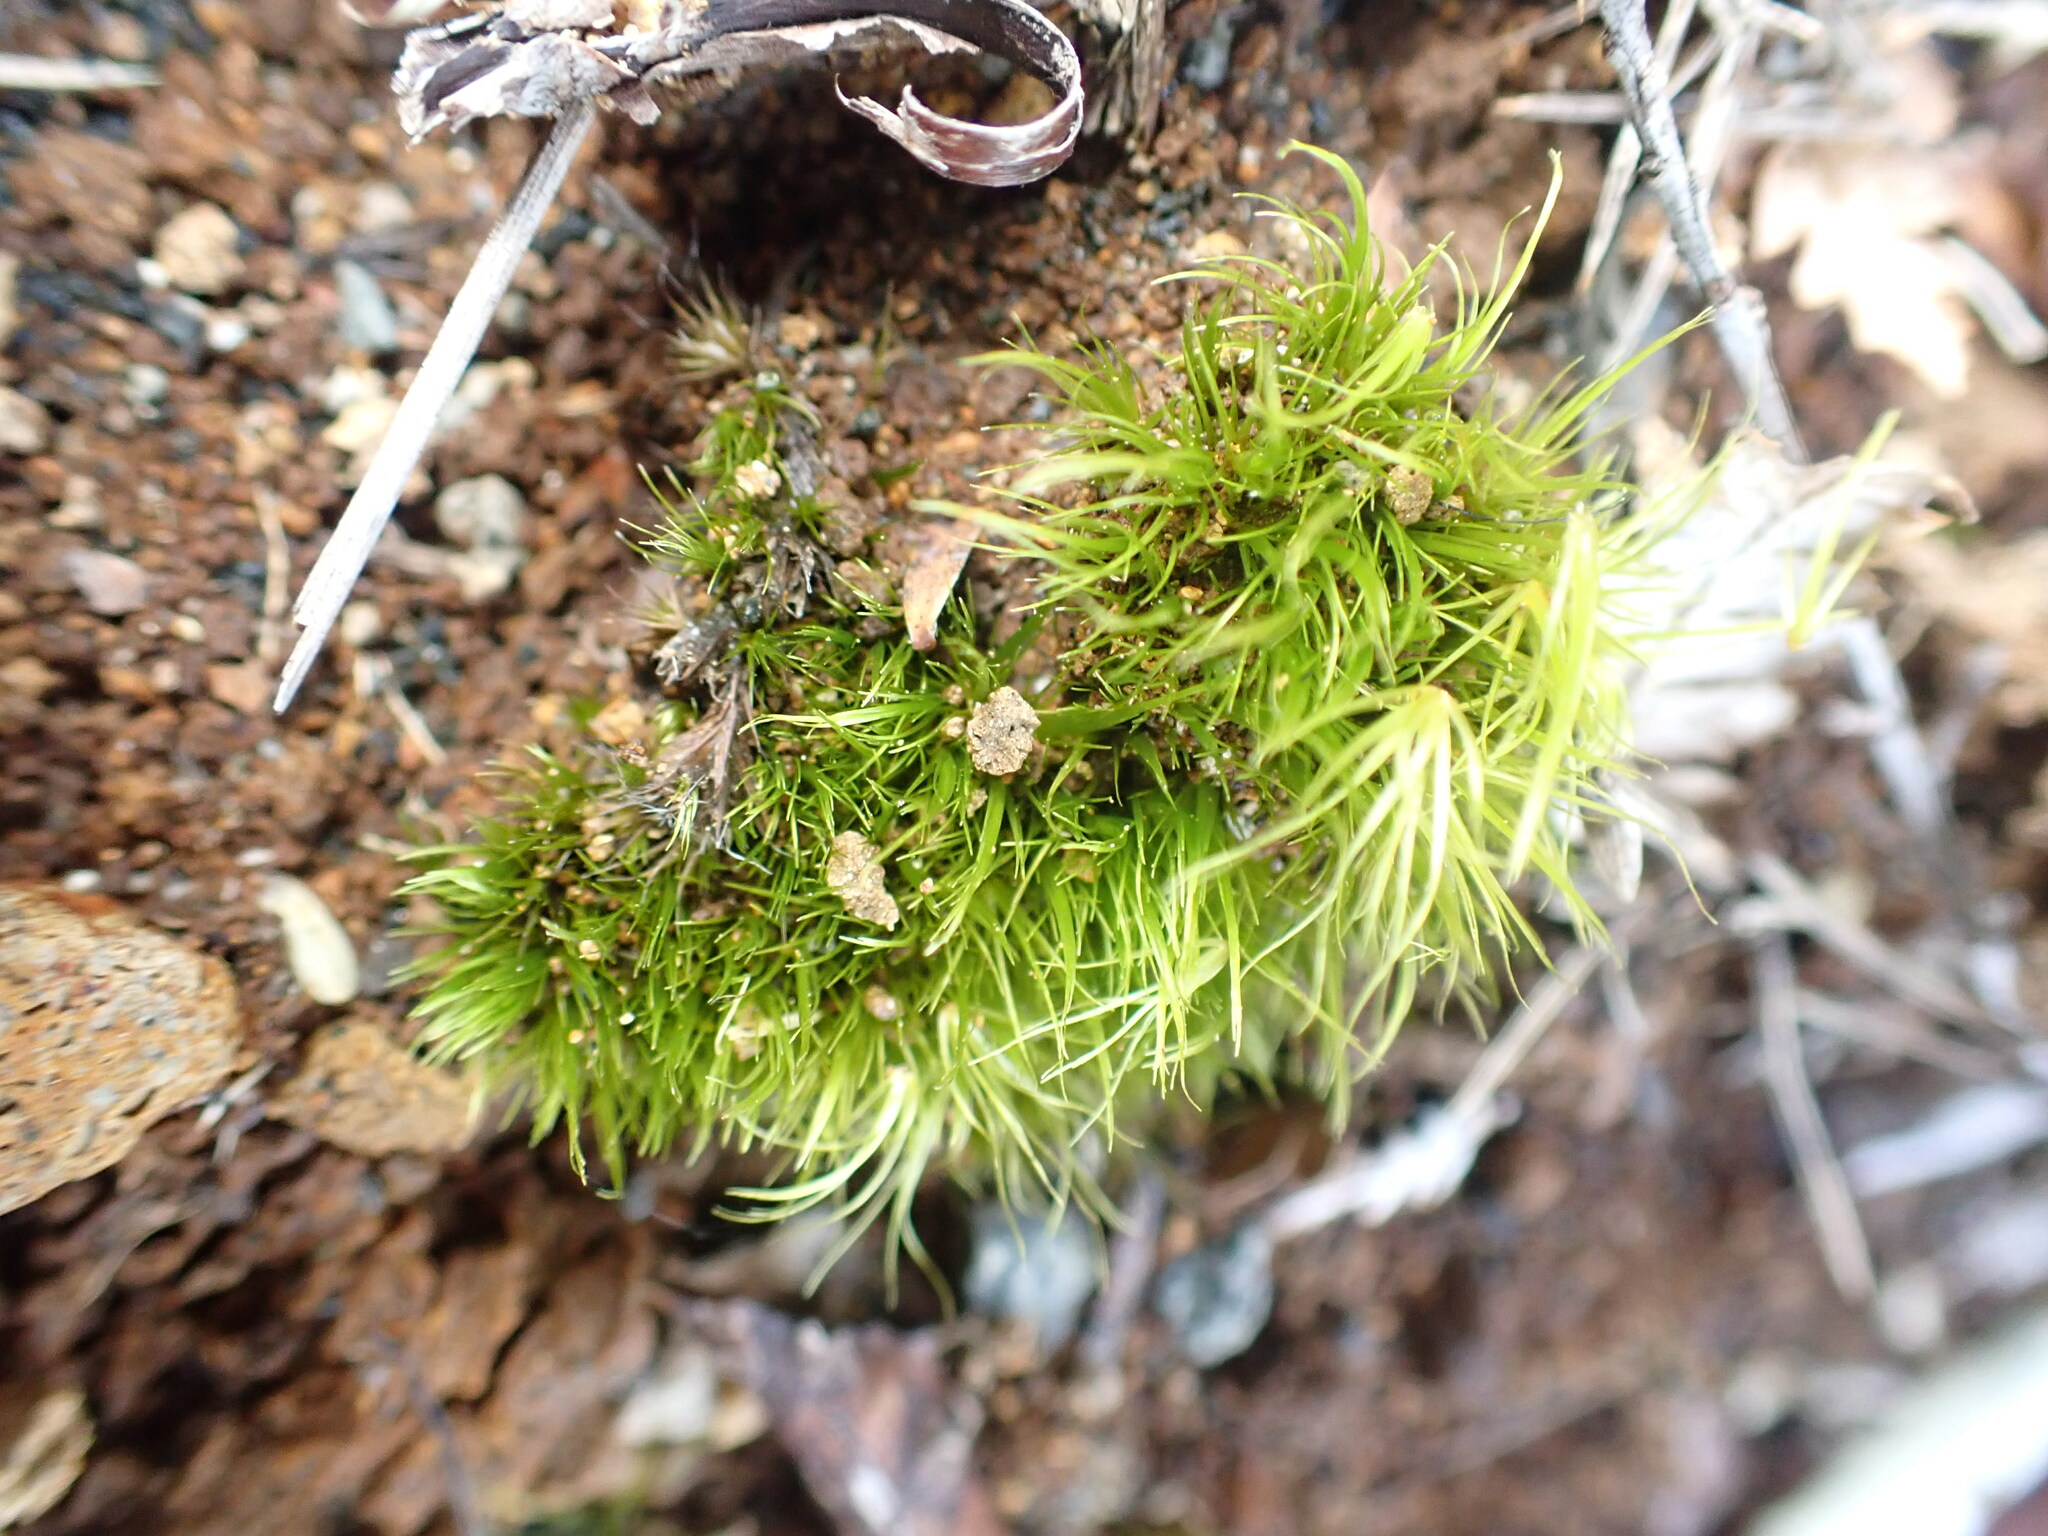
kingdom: Plantae
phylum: Bryophyta
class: Bryopsida
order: Dicranales
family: Leucobryaceae
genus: Campylopus
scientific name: Campylopus clavatus
